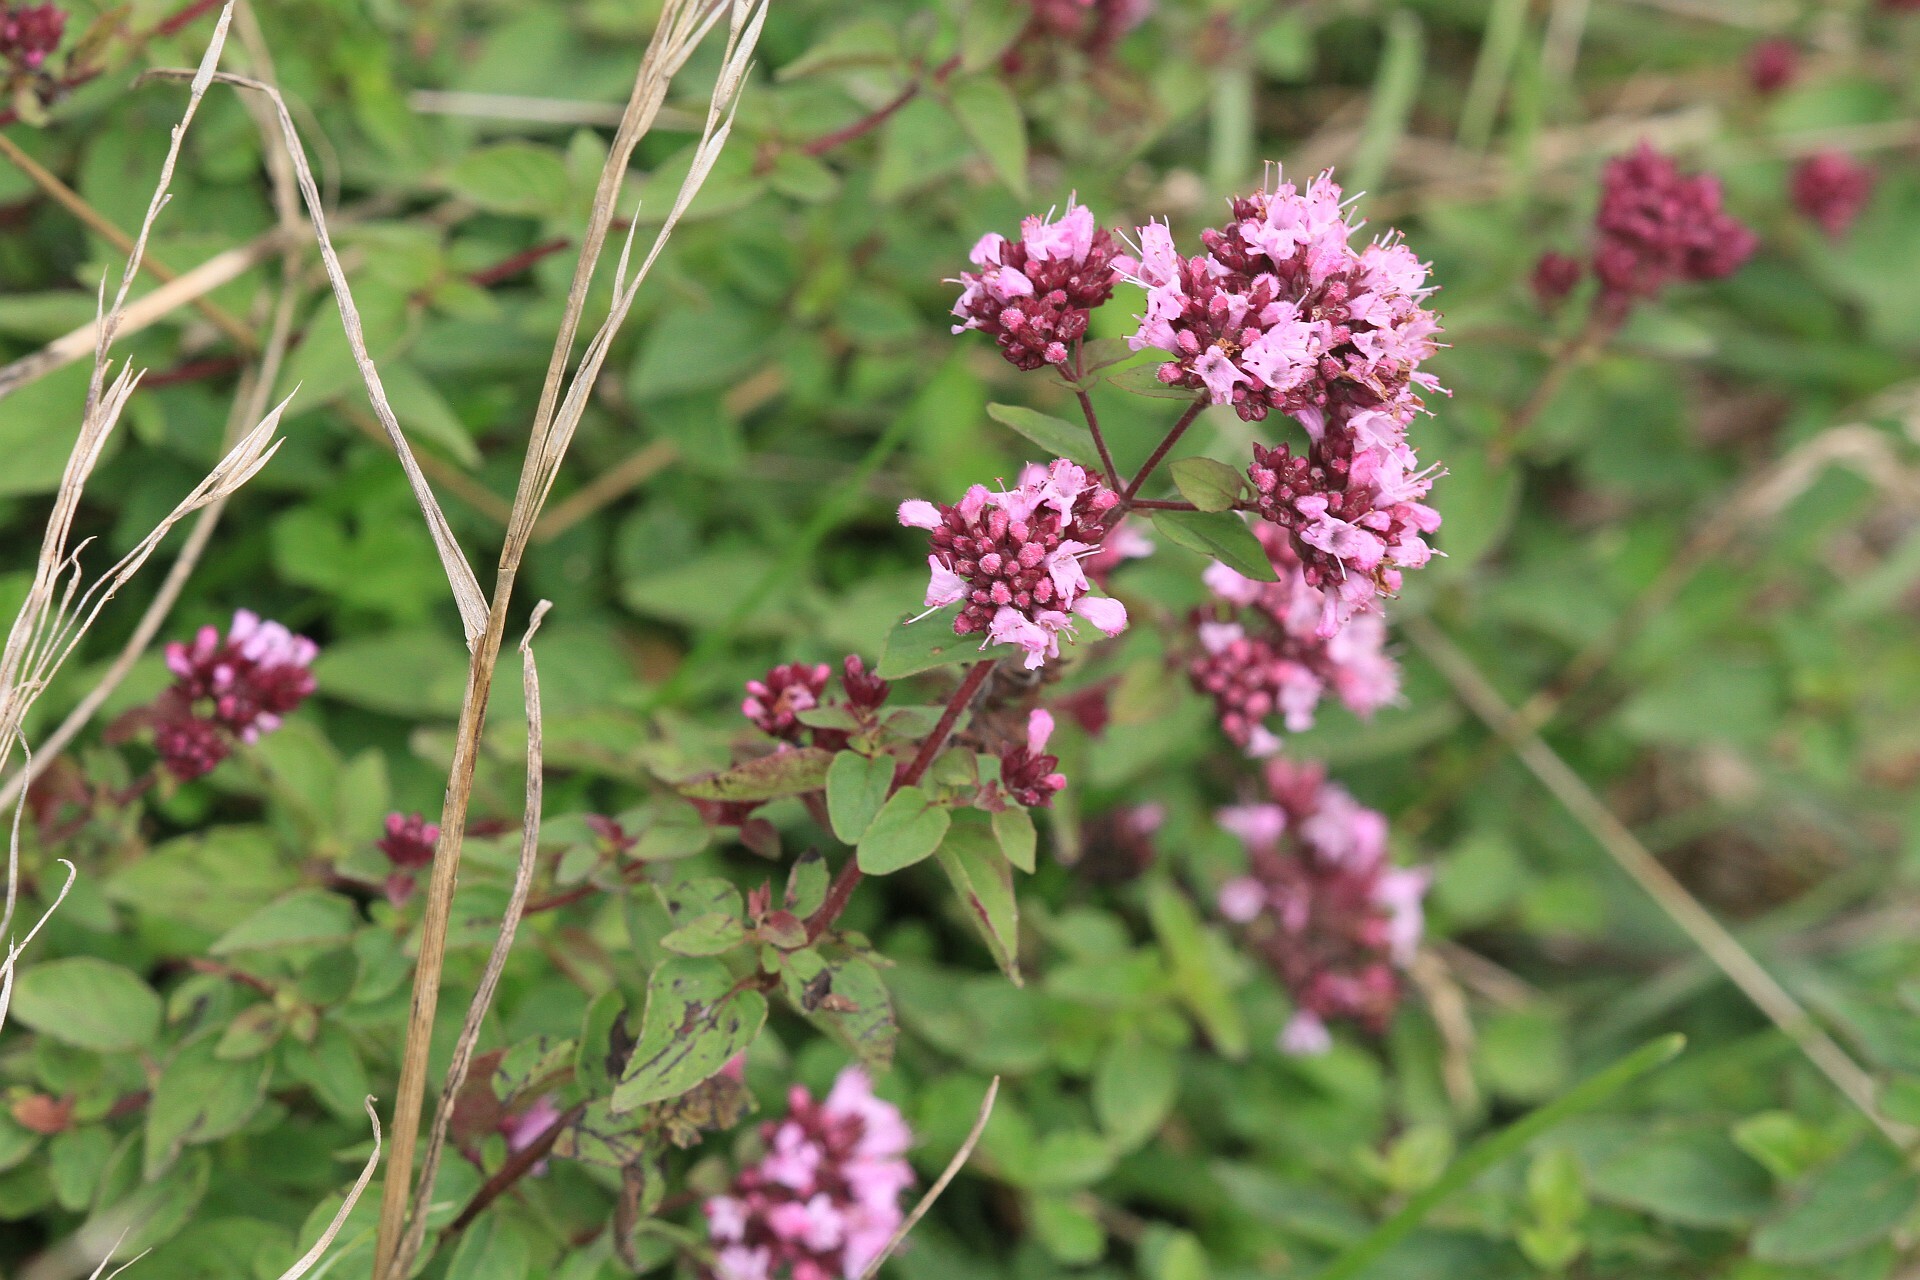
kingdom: Plantae
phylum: Tracheophyta
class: Magnoliopsida
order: Lamiales
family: Lamiaceae
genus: Origanum
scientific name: Origanum vulgare
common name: Wild marjoram
